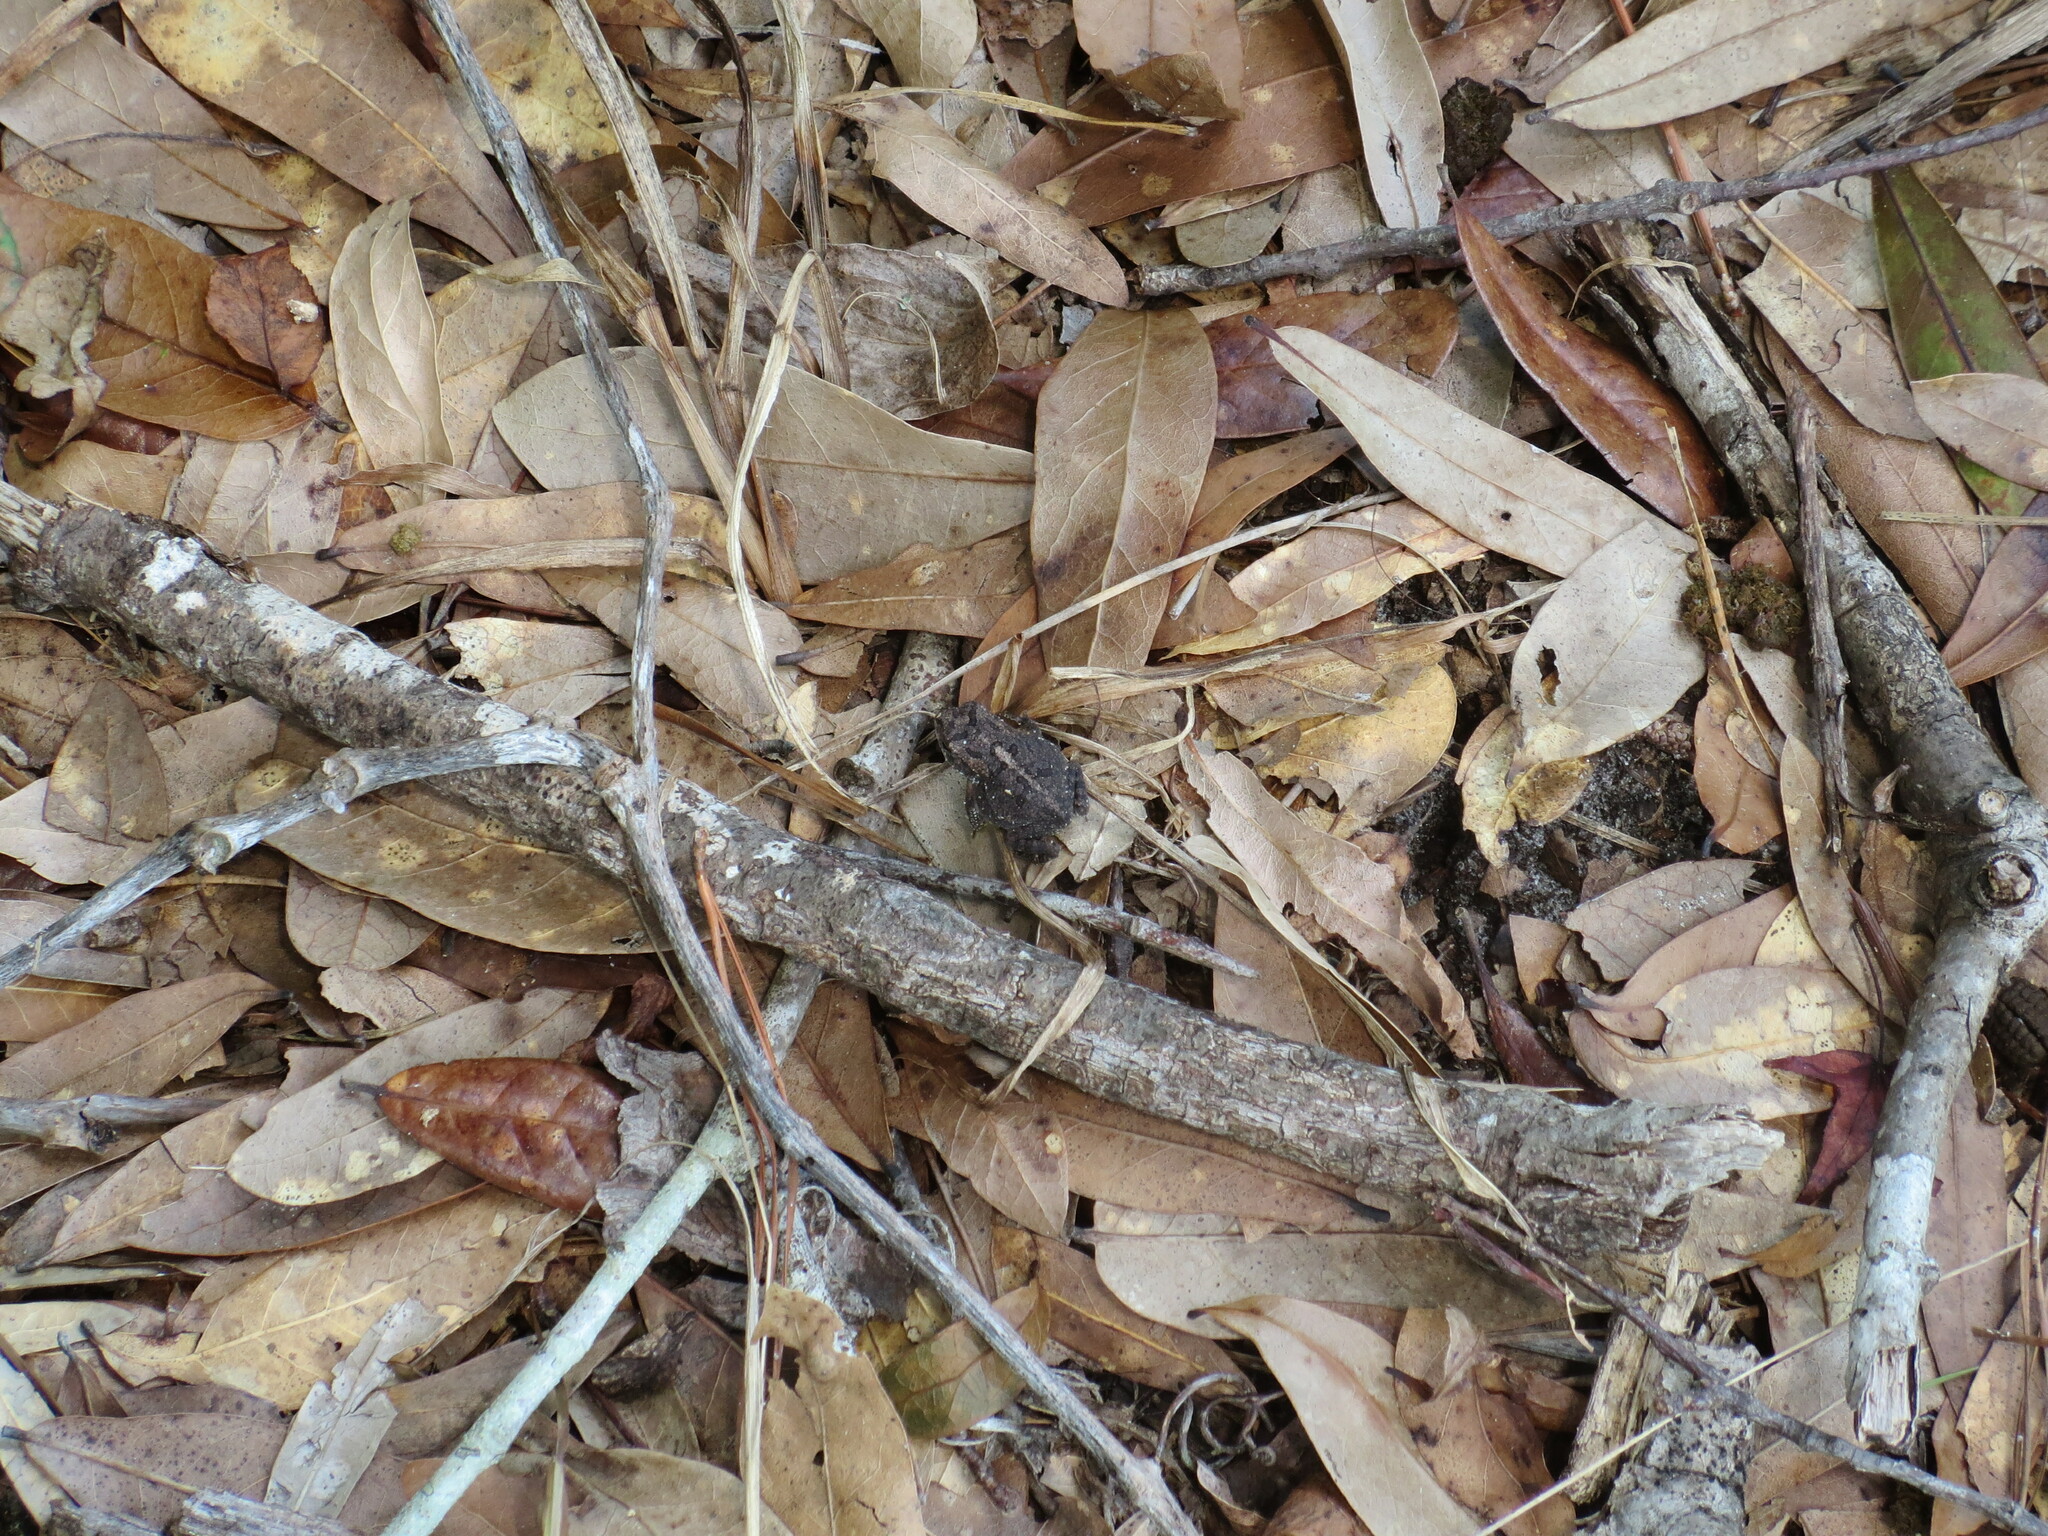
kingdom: Animalia
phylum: Chordata
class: Amphibia
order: Anura
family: Bufonidae
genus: Anaxyrus
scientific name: Anaxyrus terrestris
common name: Southern toad
